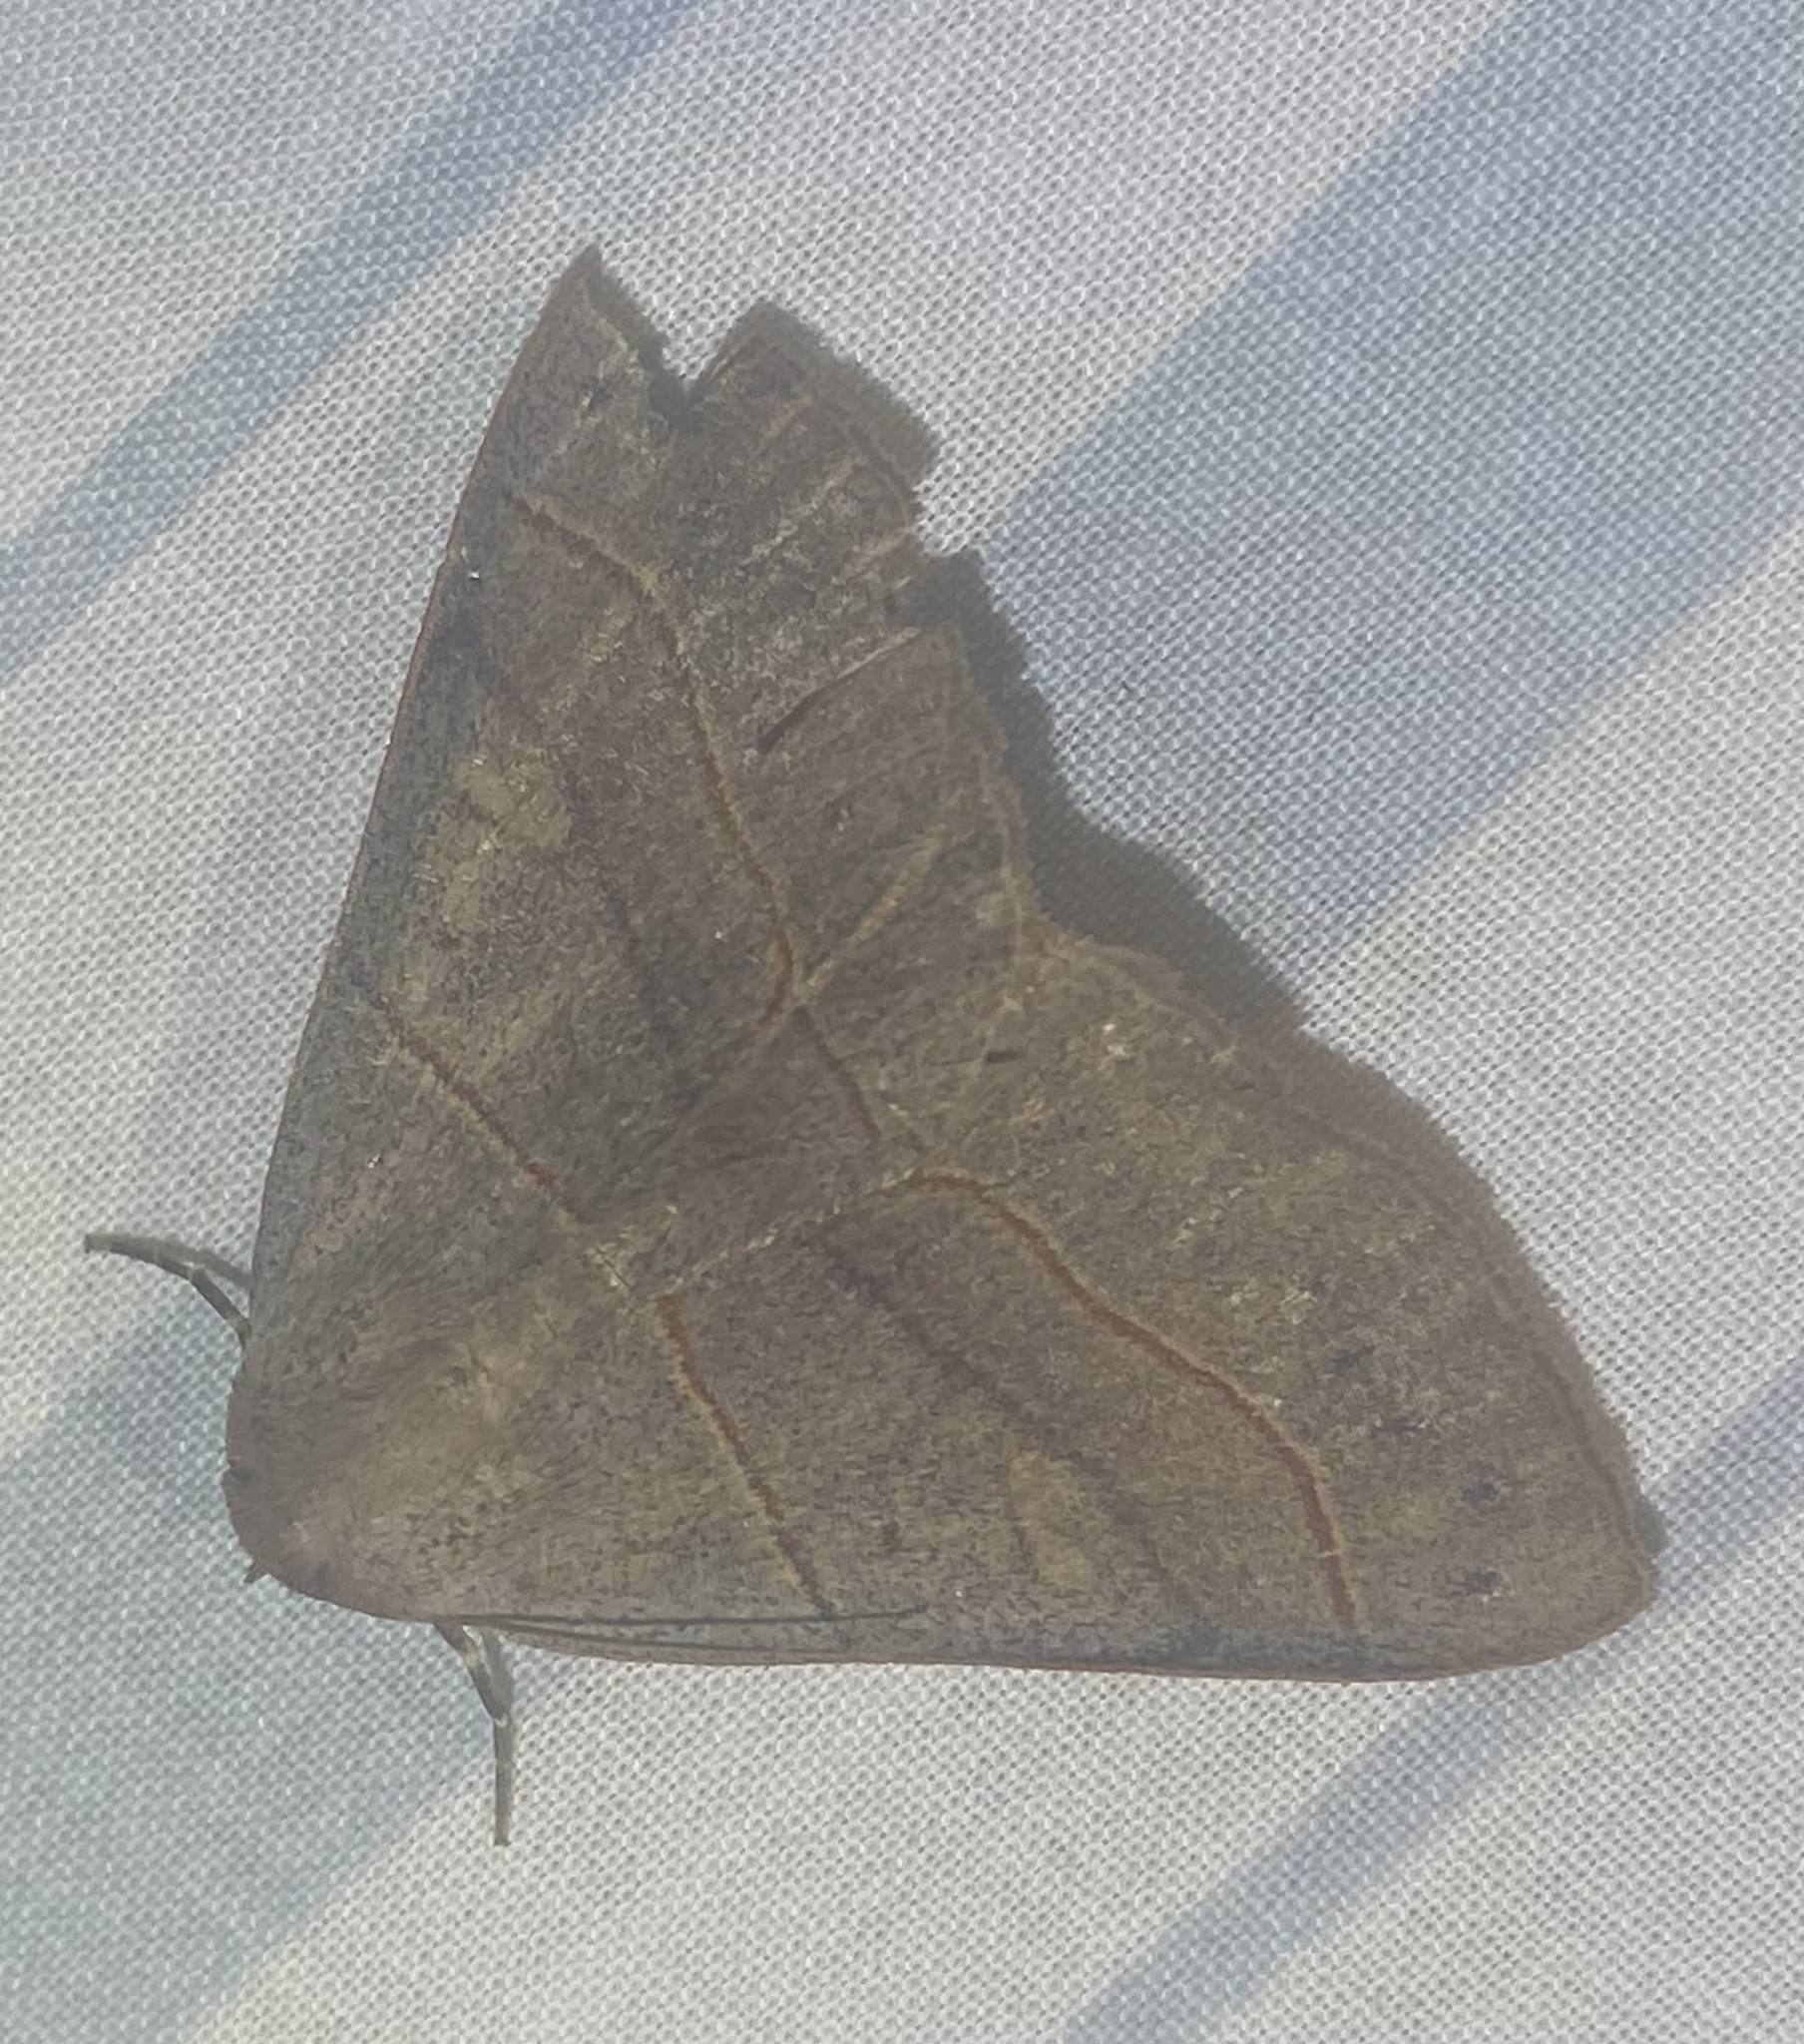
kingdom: Animalia
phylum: Arthropoda
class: Insecta
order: Lepidoptera
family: Erebidae
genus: Panopoda
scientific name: Panopoda rufimargo
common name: Red-lined panopoda moth
